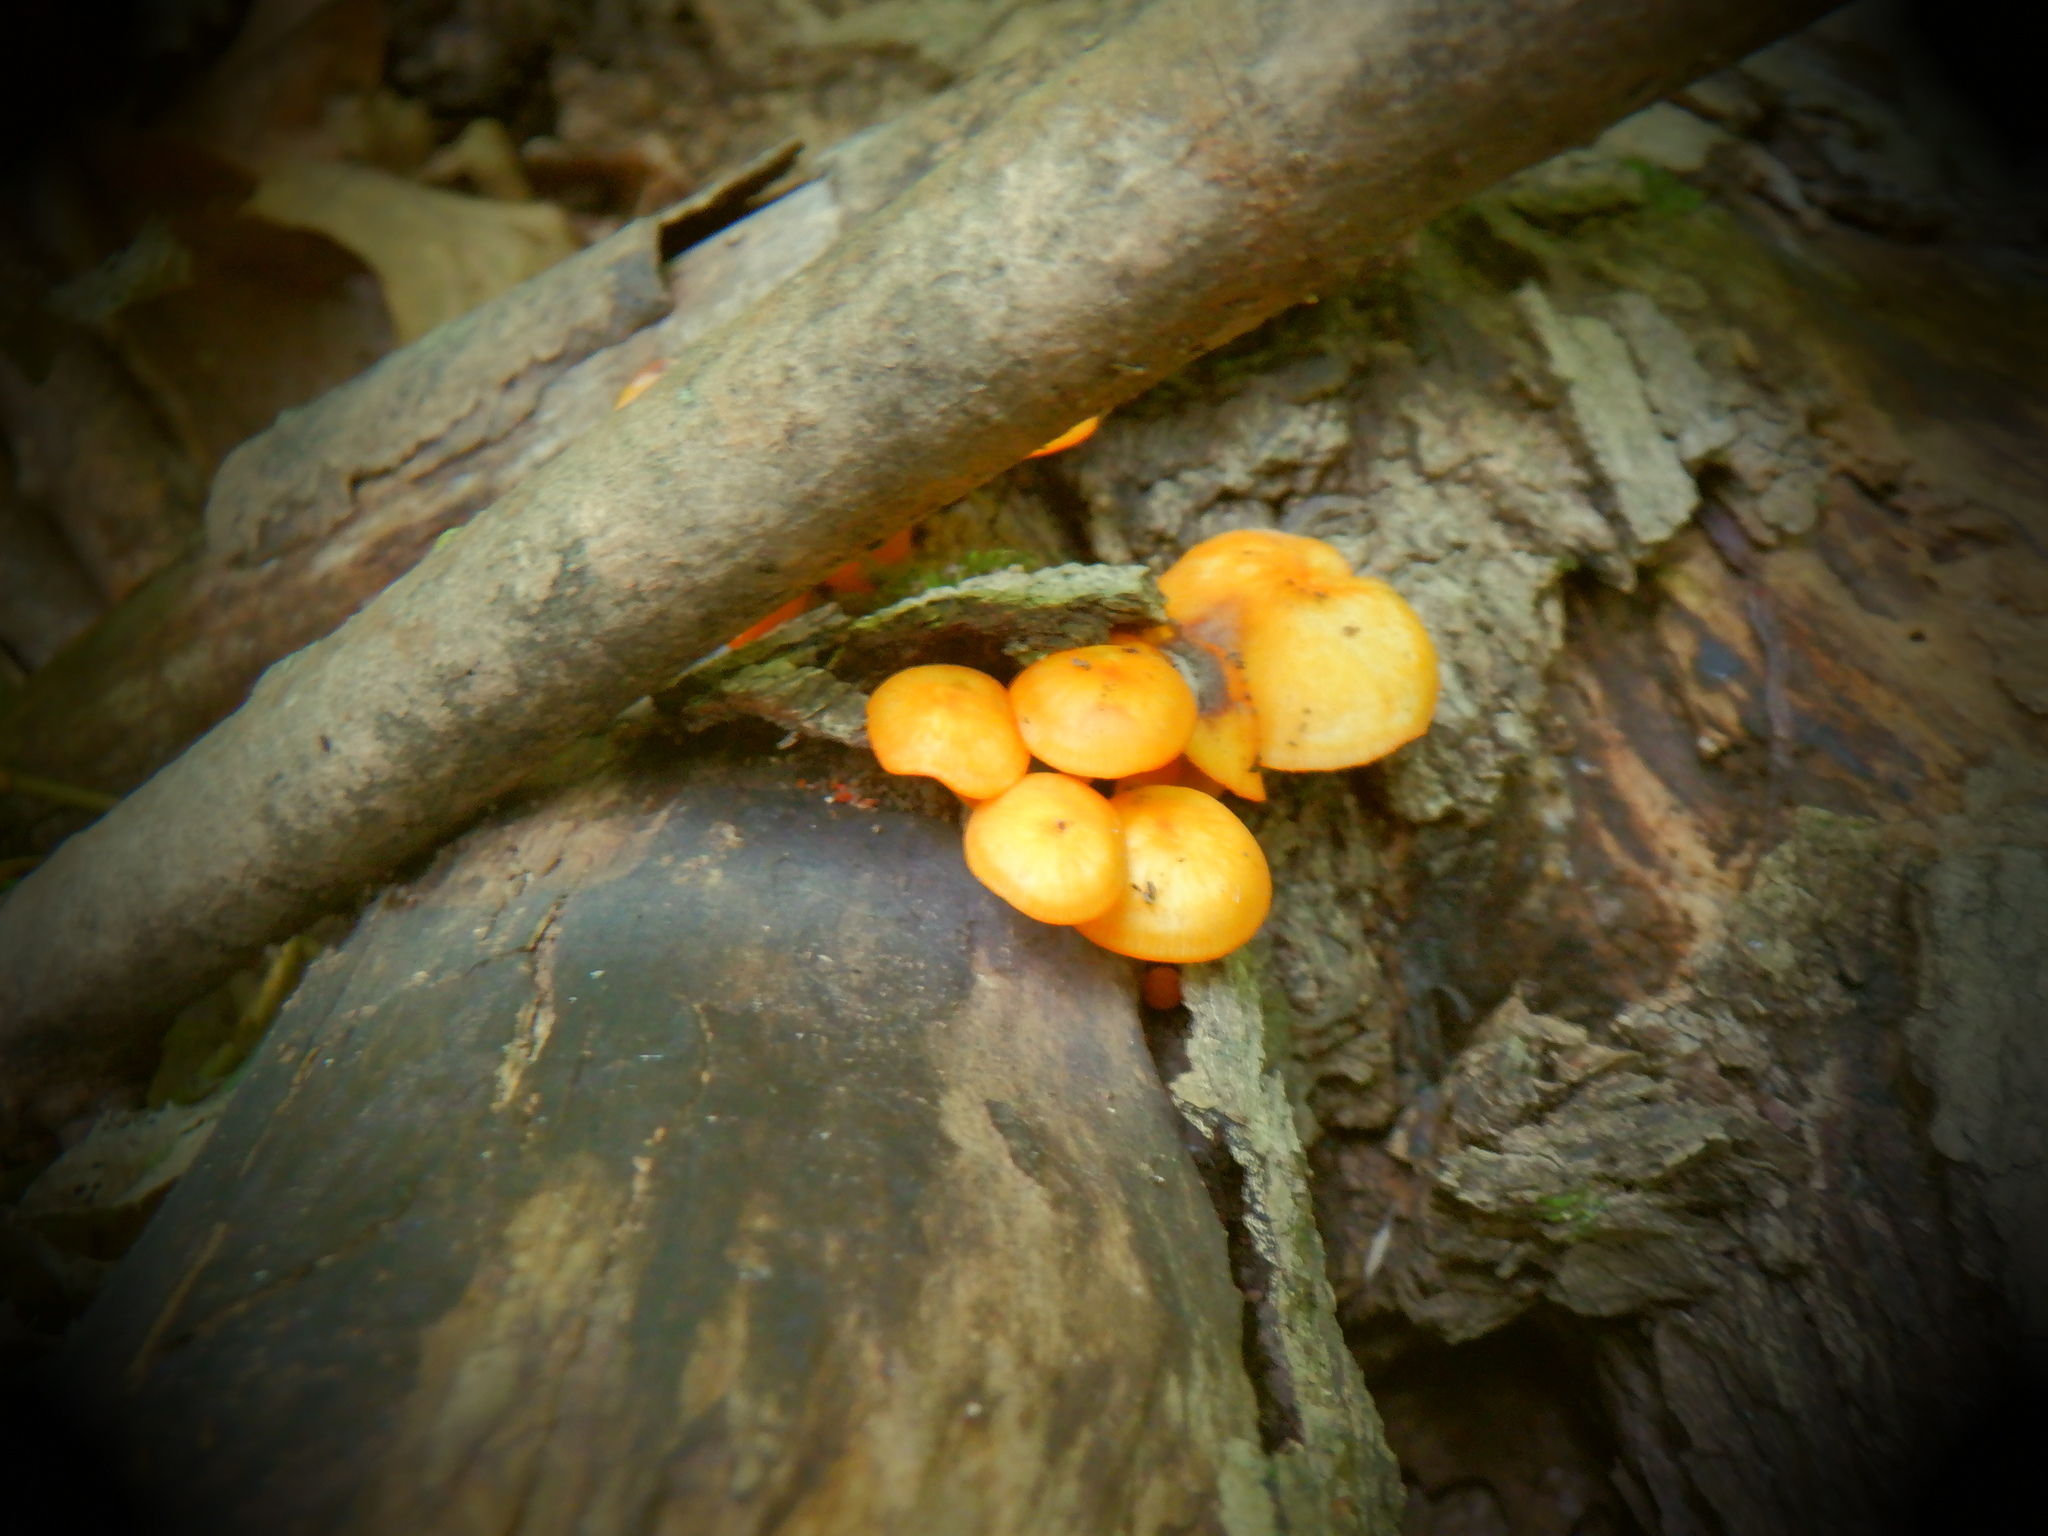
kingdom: Fungi
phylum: Basidiomycota
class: Agaricomycetes
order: Agaricales
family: Mycenaceae
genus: Mycena
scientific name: Mycena leaiana
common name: Orange mycena
